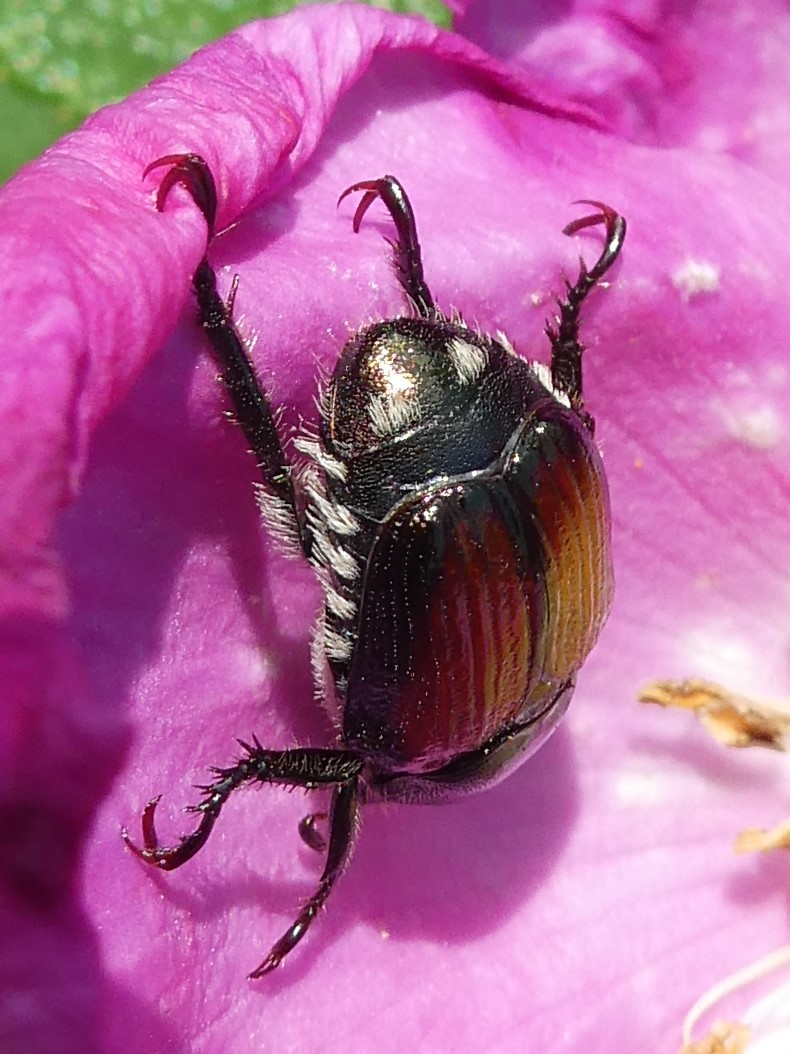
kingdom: Animalia
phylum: Arthropoda
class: Insecta
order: Coleoptera
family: Scarabaeidae
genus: Popillia
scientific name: Popillia japonica
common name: Japanese beetle
